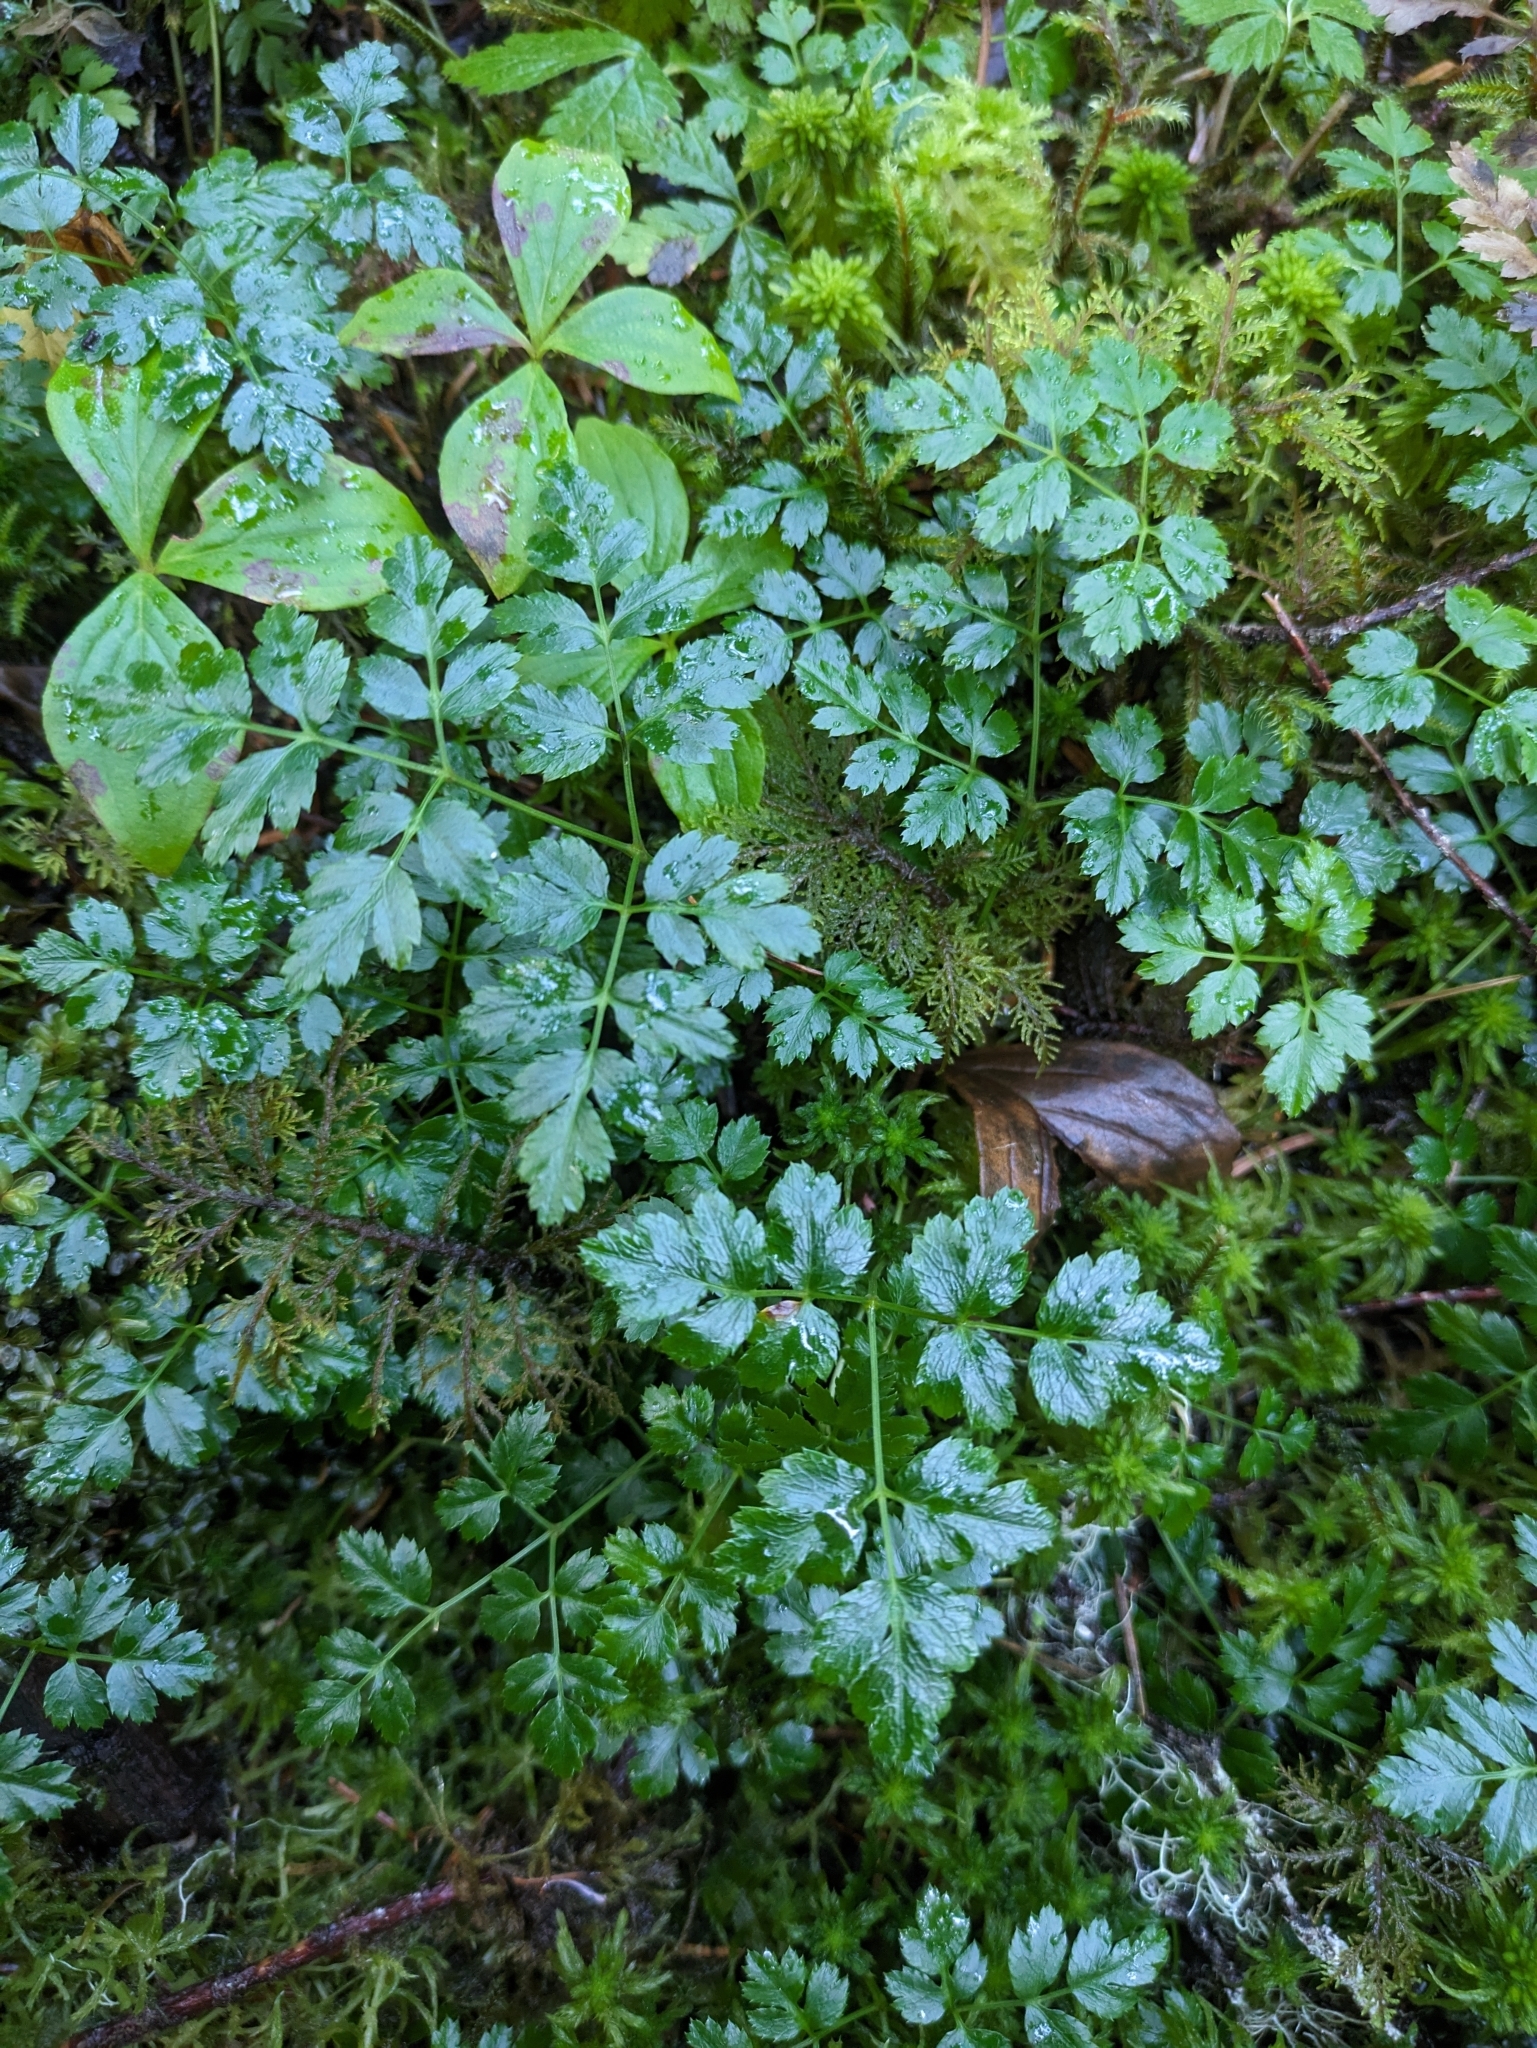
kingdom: Plantae
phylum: Tracheophyta
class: Magnoliopsida
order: Ranunculales
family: Ranunculaceae
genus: Coptis
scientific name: Coptis aspleniifolia
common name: Fern-leaved goldthread
